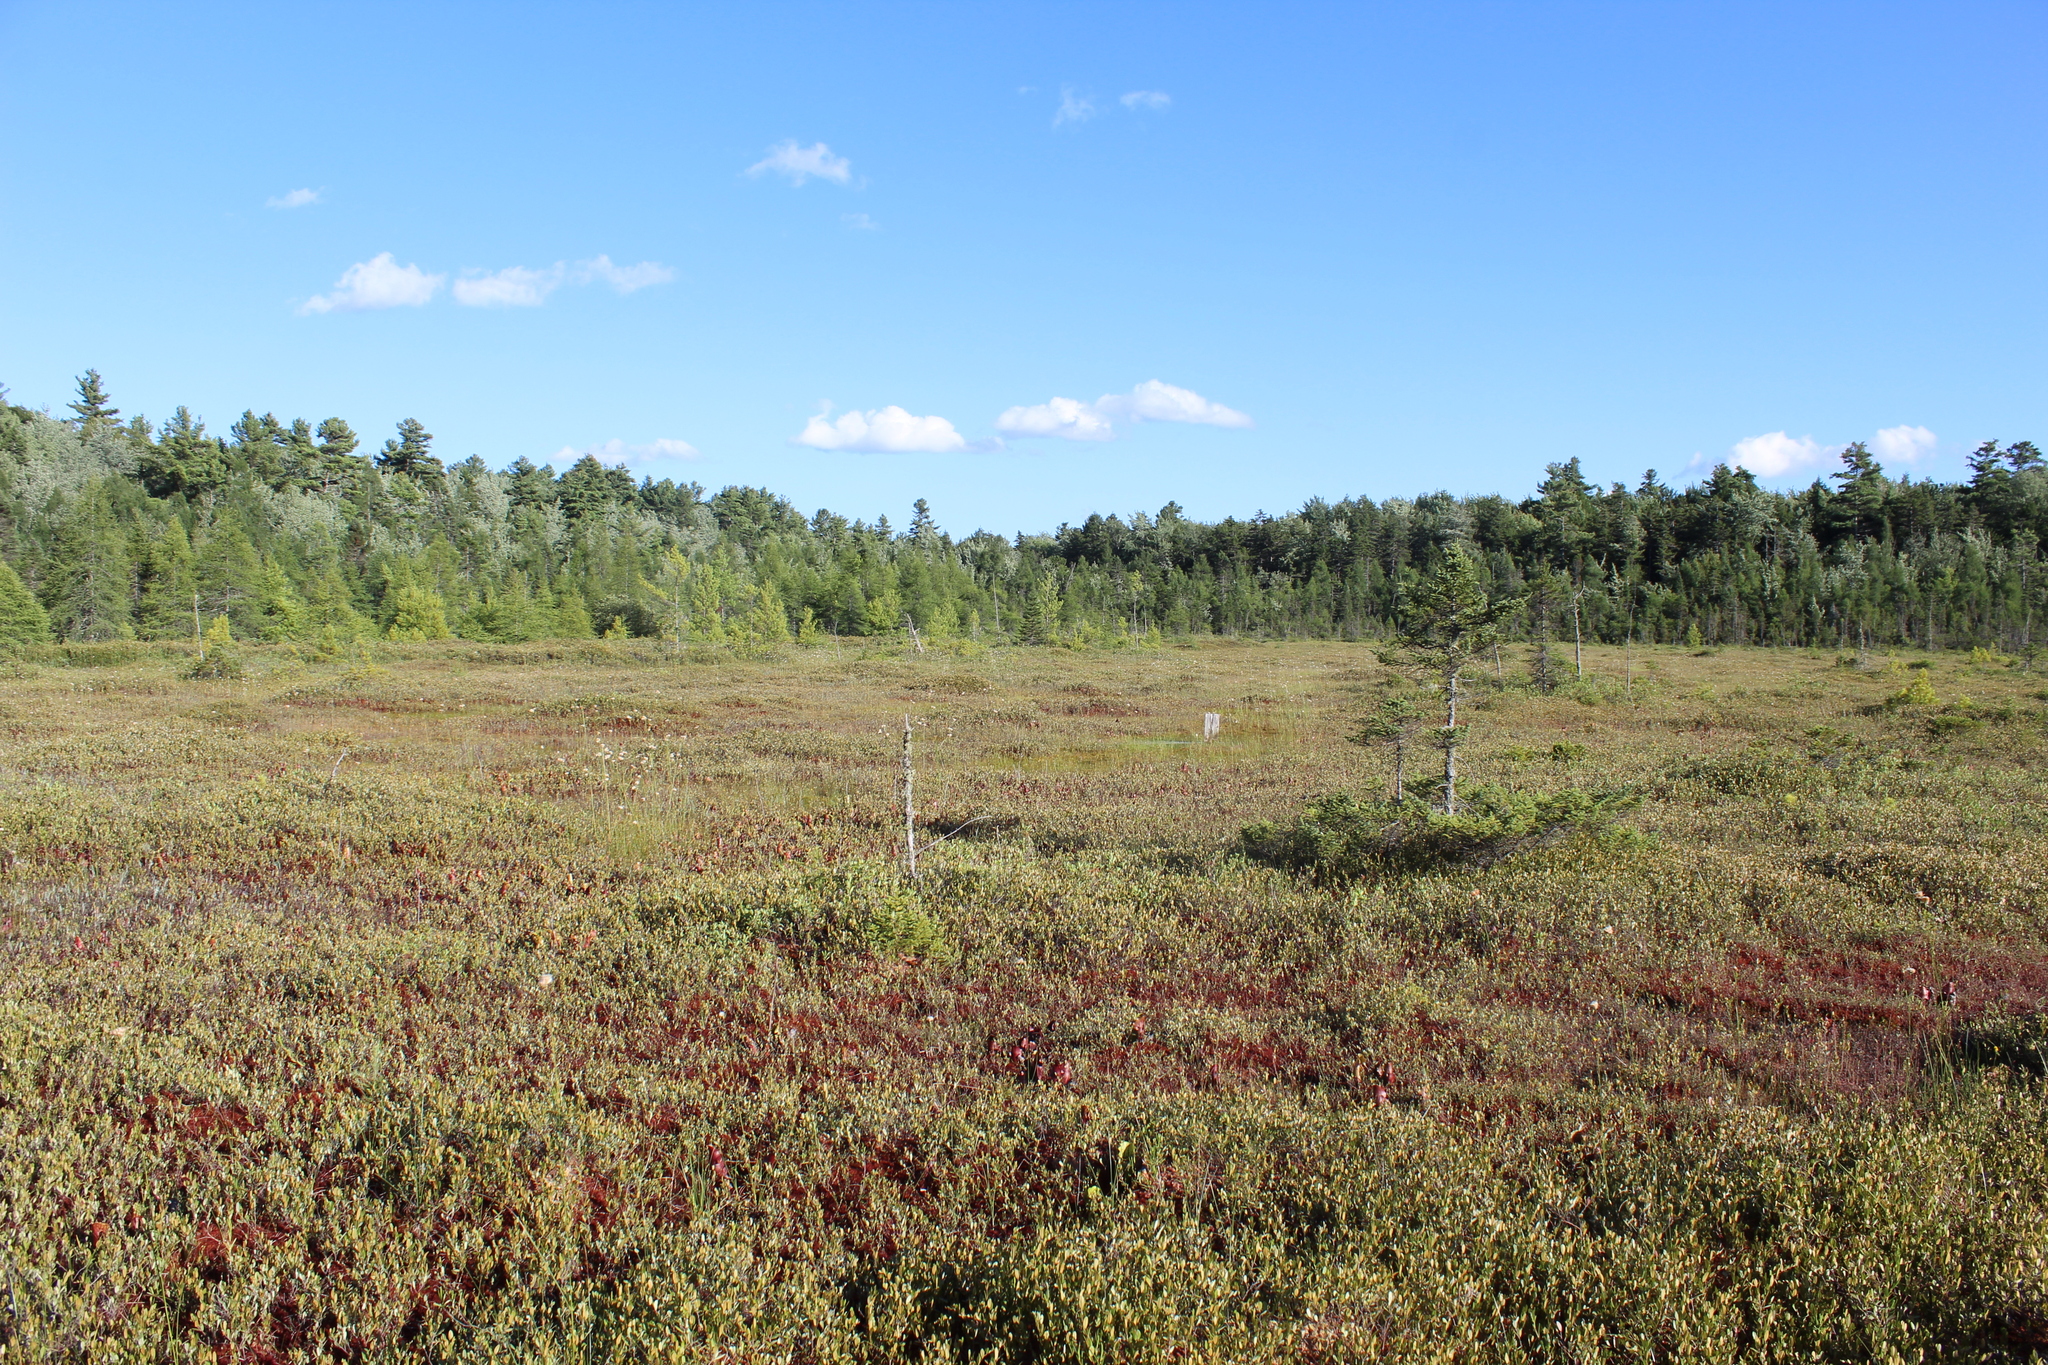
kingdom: Plantae
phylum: Tracheophyta
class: Magnoliopsida
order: Ericales
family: Ericaceae
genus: Chamaedaphne
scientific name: Chamaedaphne calyculata
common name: Leatherleaf
